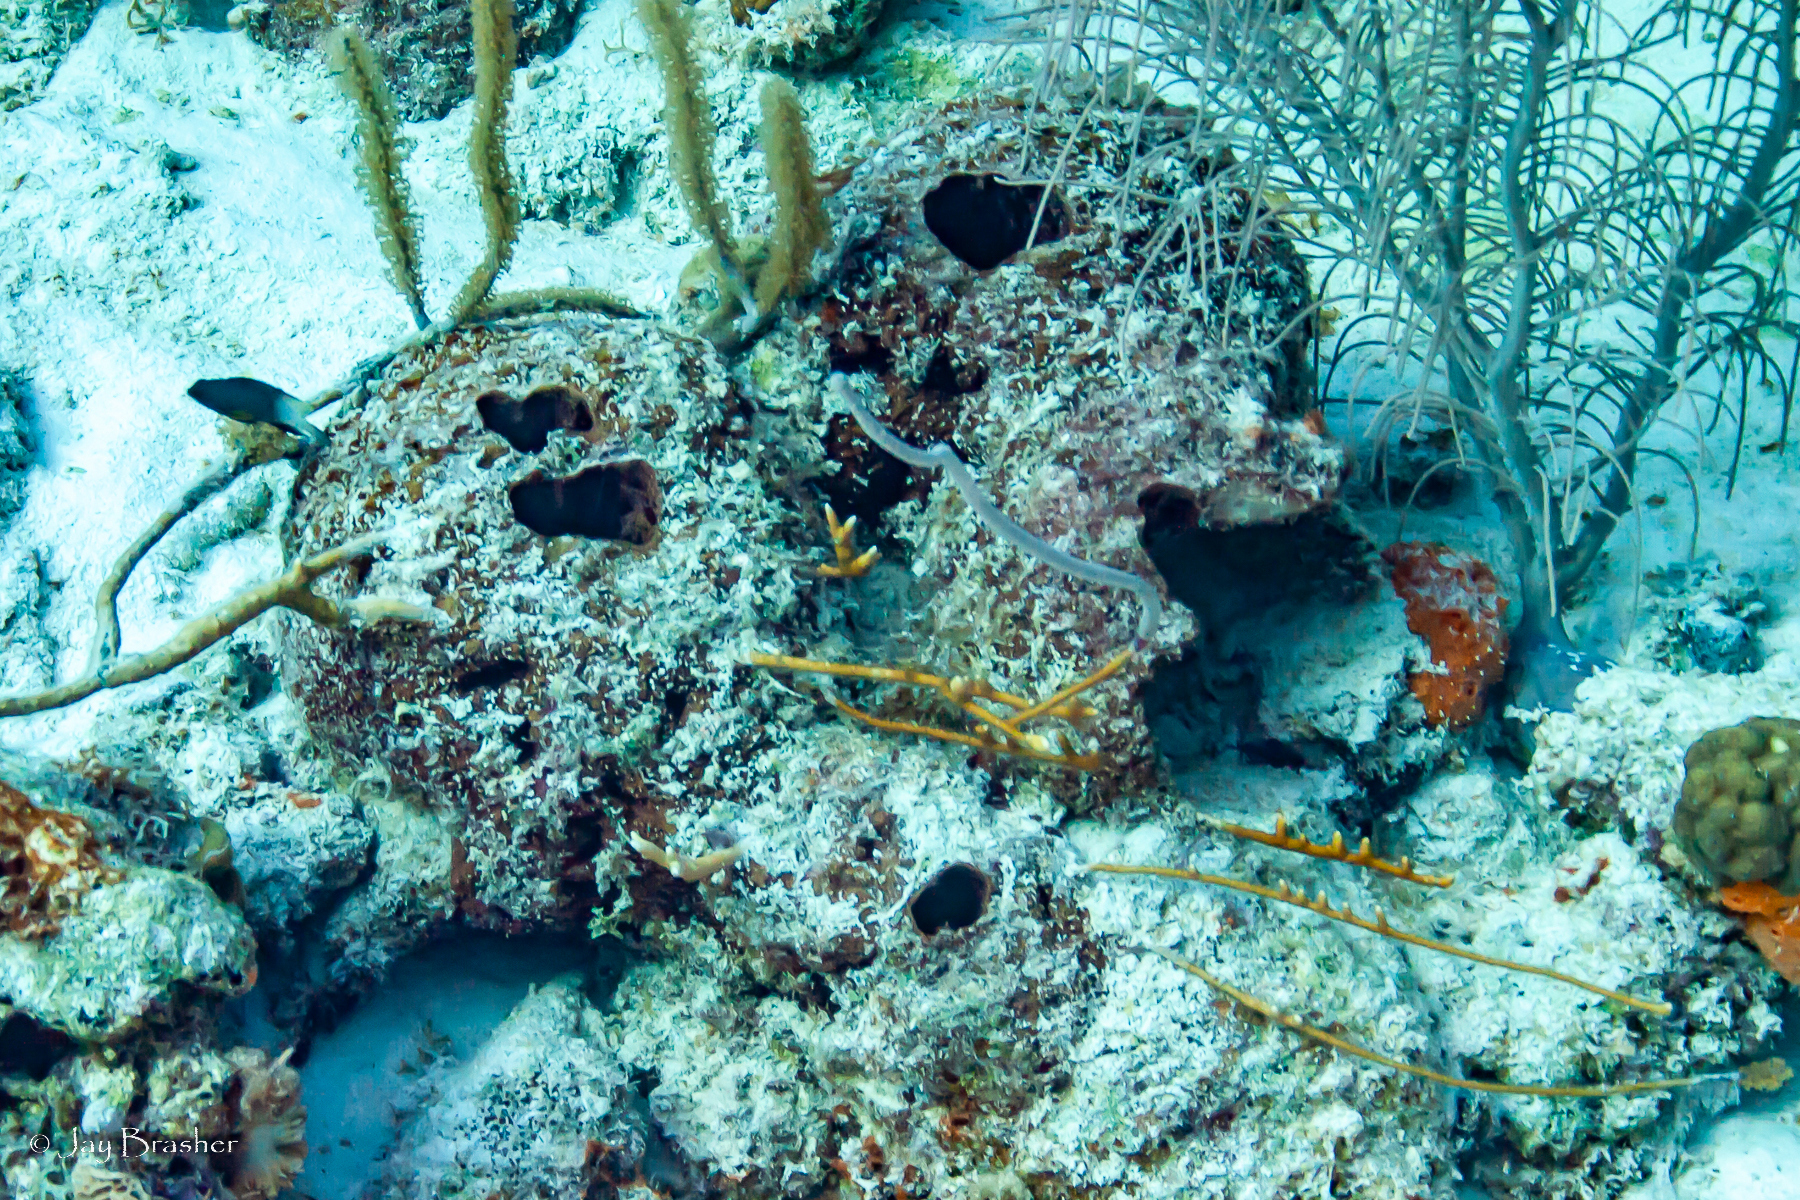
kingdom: Animalia
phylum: Porifera
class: Demospongiae
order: Biemnida
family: Biemnidae
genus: Neofibularia
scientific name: Neofibularia nolitangere
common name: Do-not-touch-me sponge
